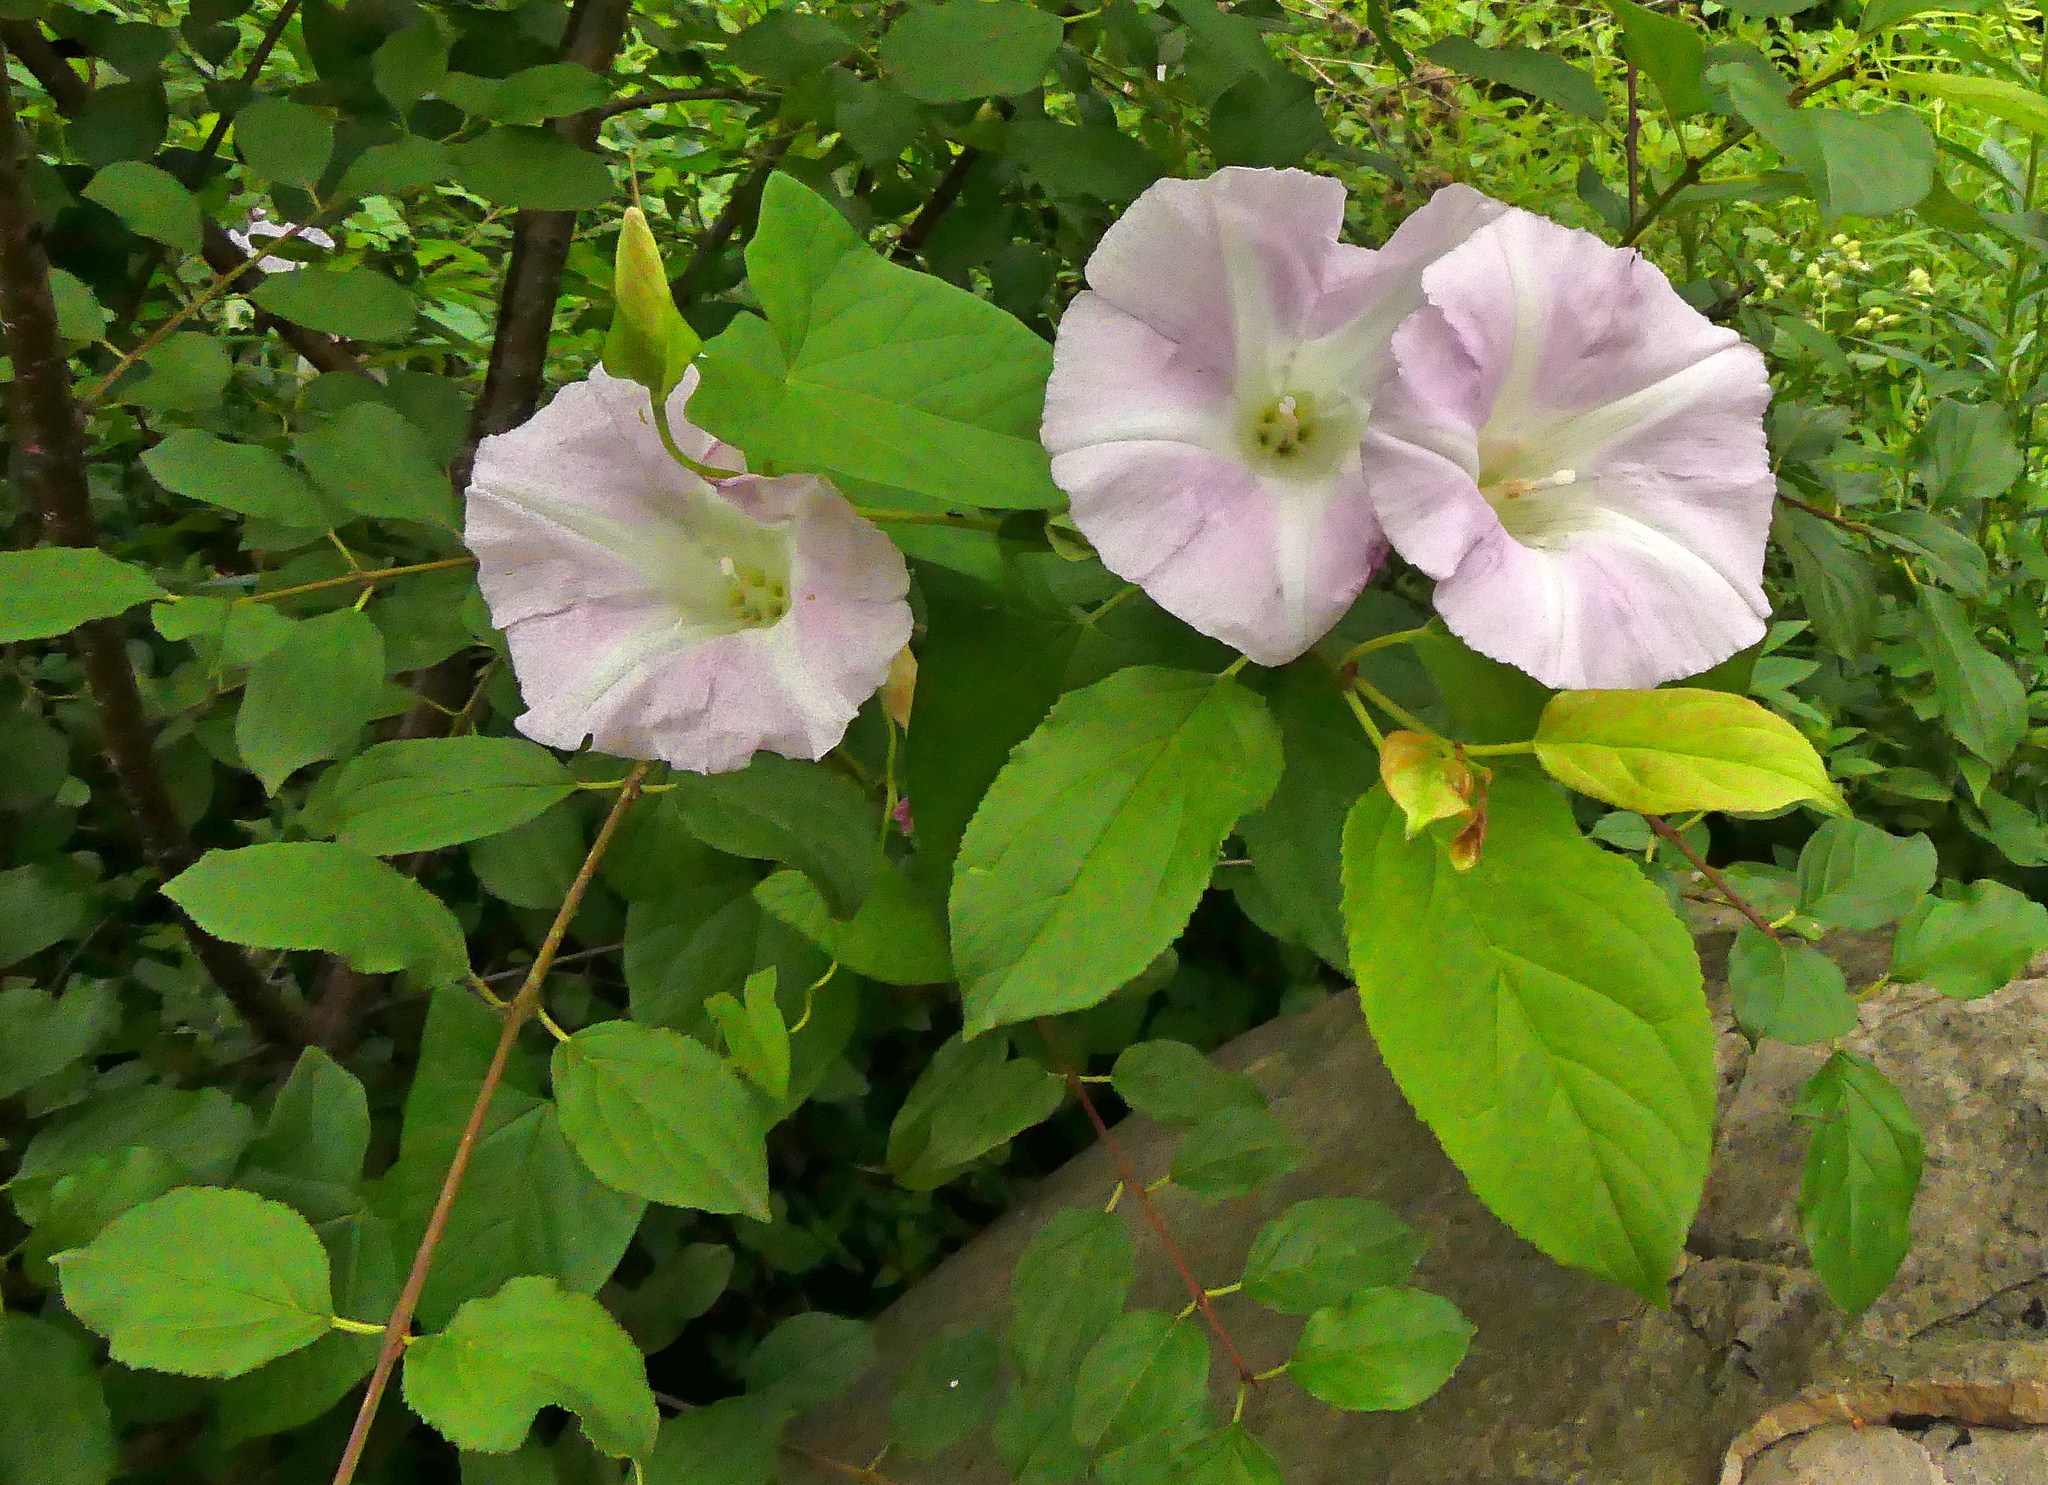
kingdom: Plantae
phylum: Tracheophyta
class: Magnoliopsida
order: Solanales
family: Convolvulaceae
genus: Calystegia
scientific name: Calystegia sepium
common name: Hedge bindweed
